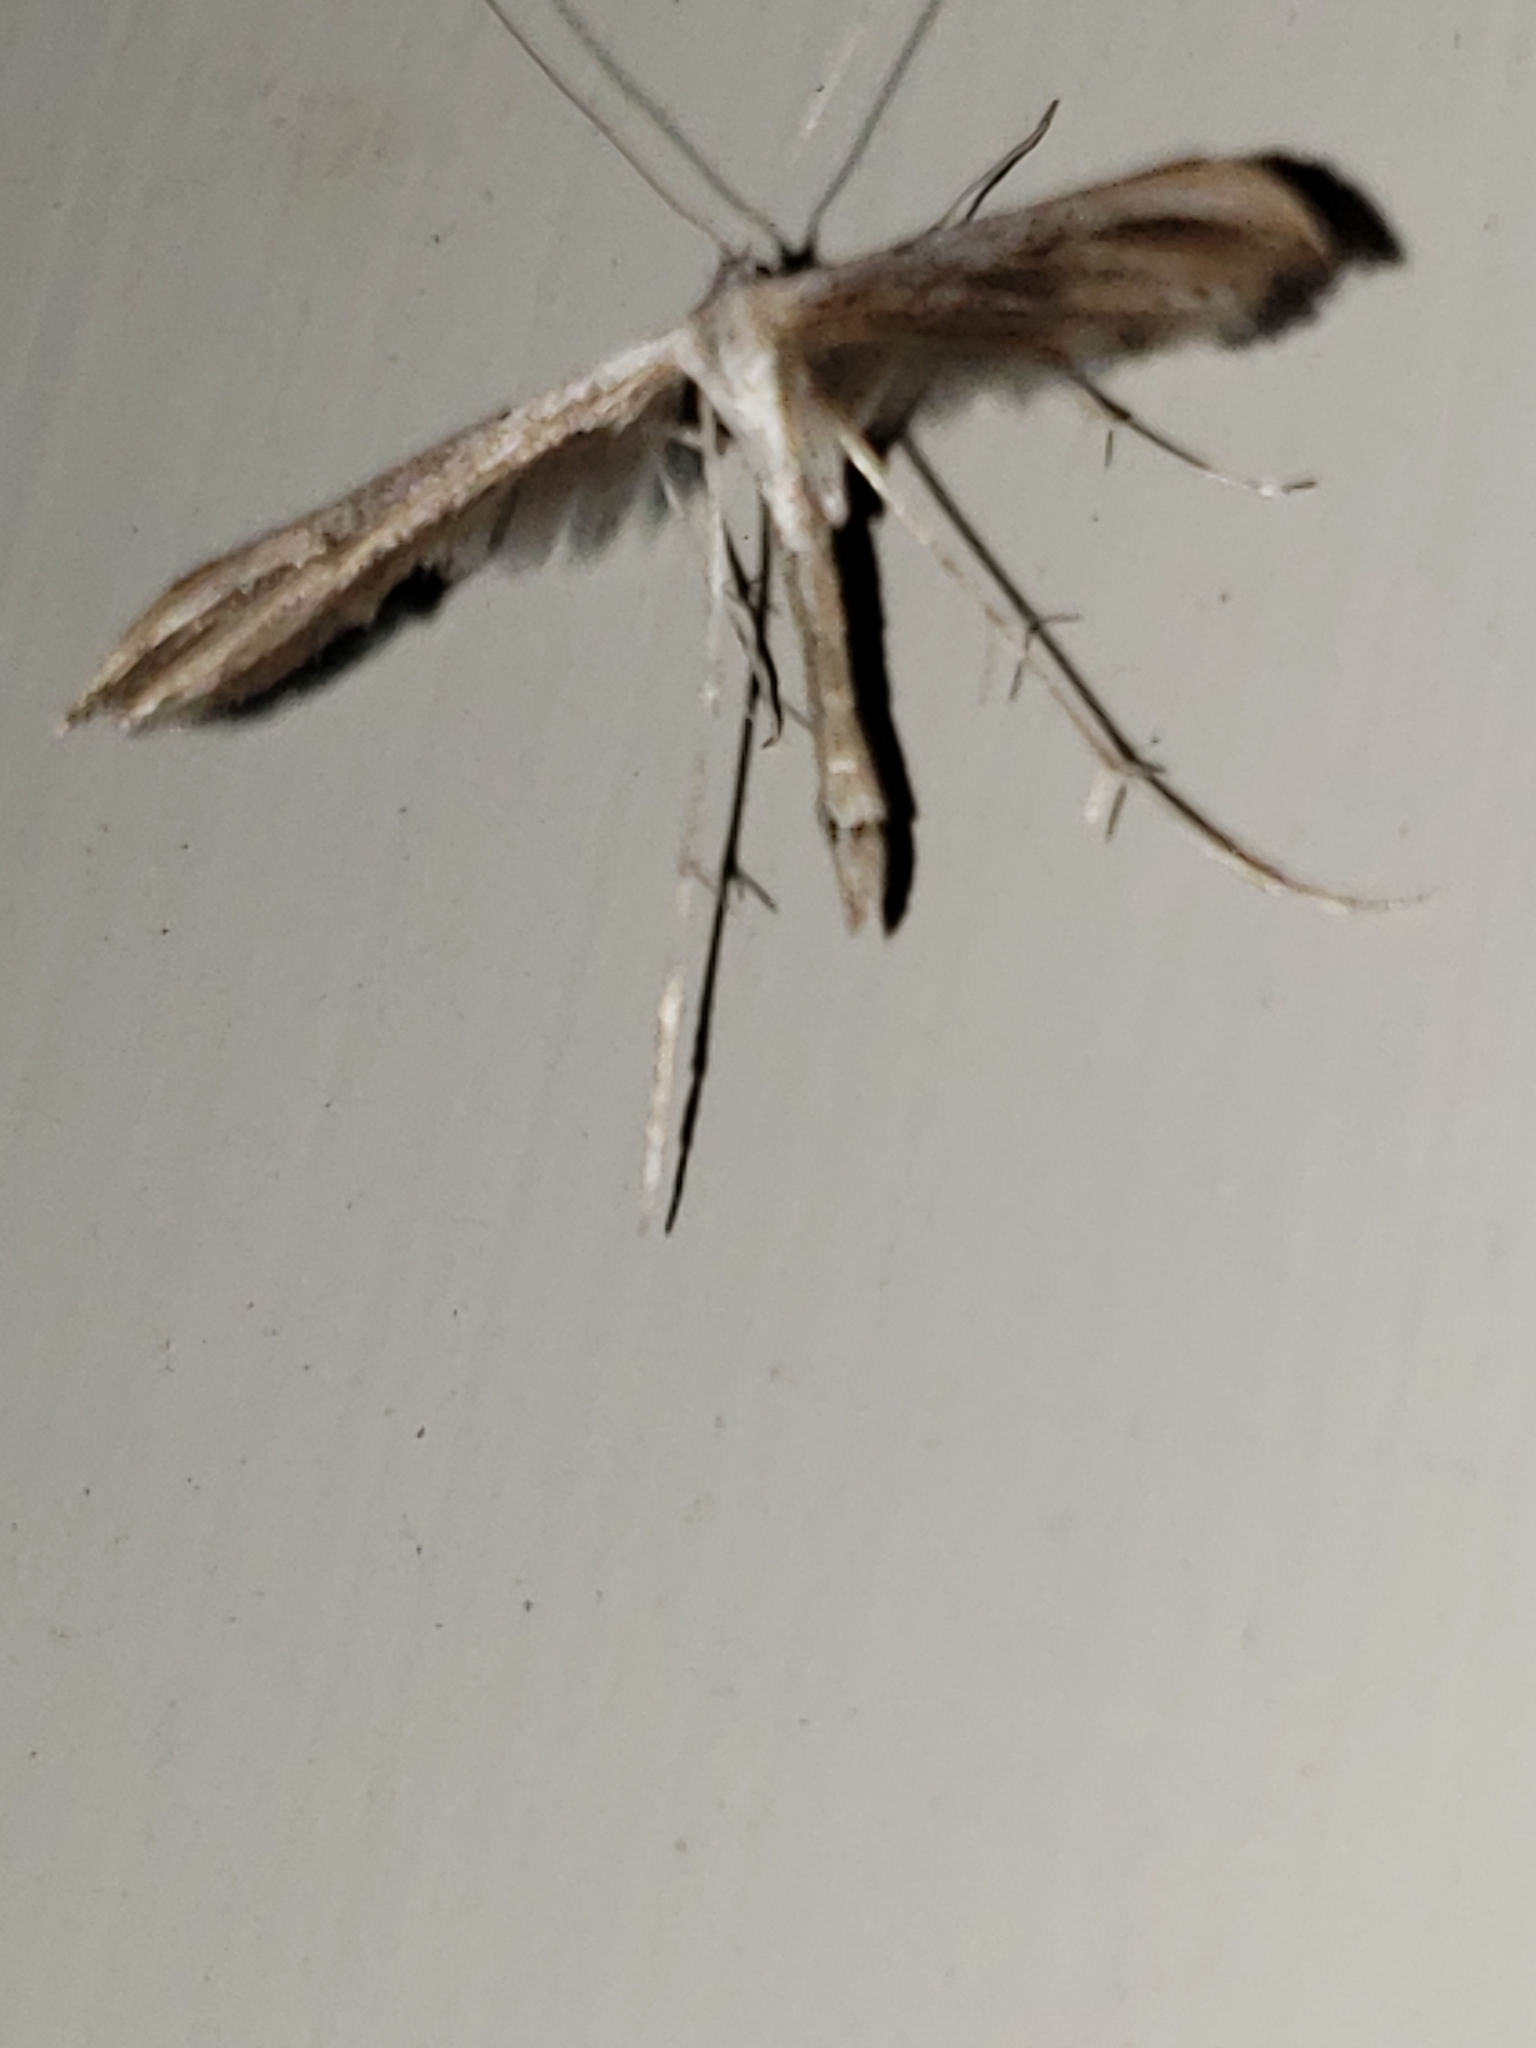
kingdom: Animalia
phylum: Arthropoda
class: Insecta
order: Lepidoptera
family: Pterophoridae
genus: Emmelina
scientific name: Emmelina monodactyla
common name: Common plume
